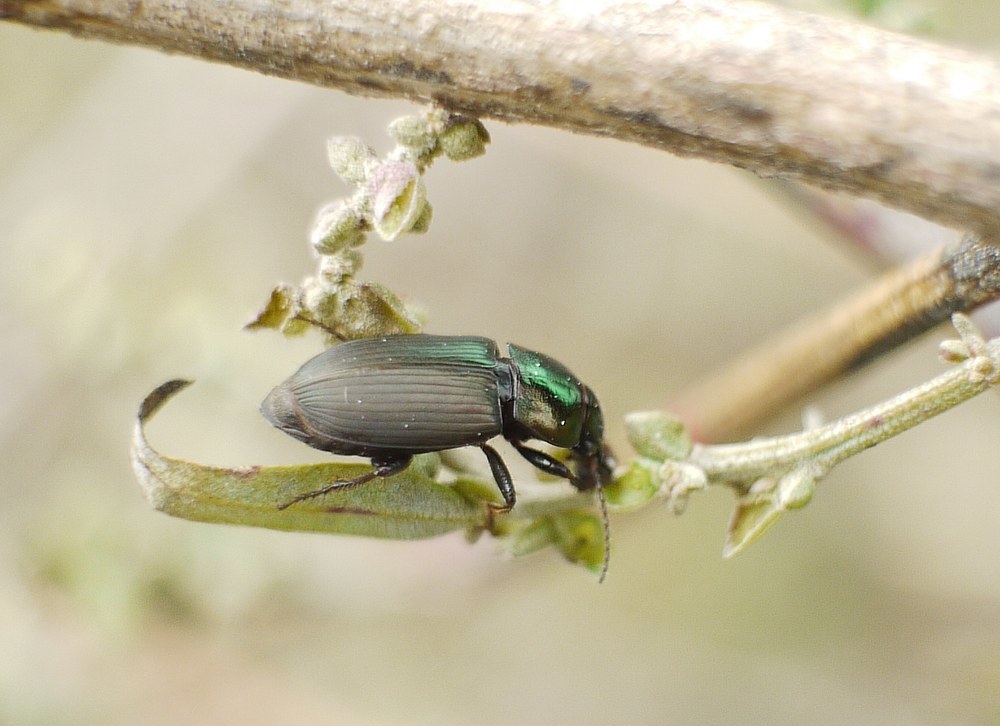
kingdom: Animalia
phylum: Arthropoda
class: Insecta
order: Coleoptera
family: Carabidae
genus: Harpalus
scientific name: Harpalus distinguendus
